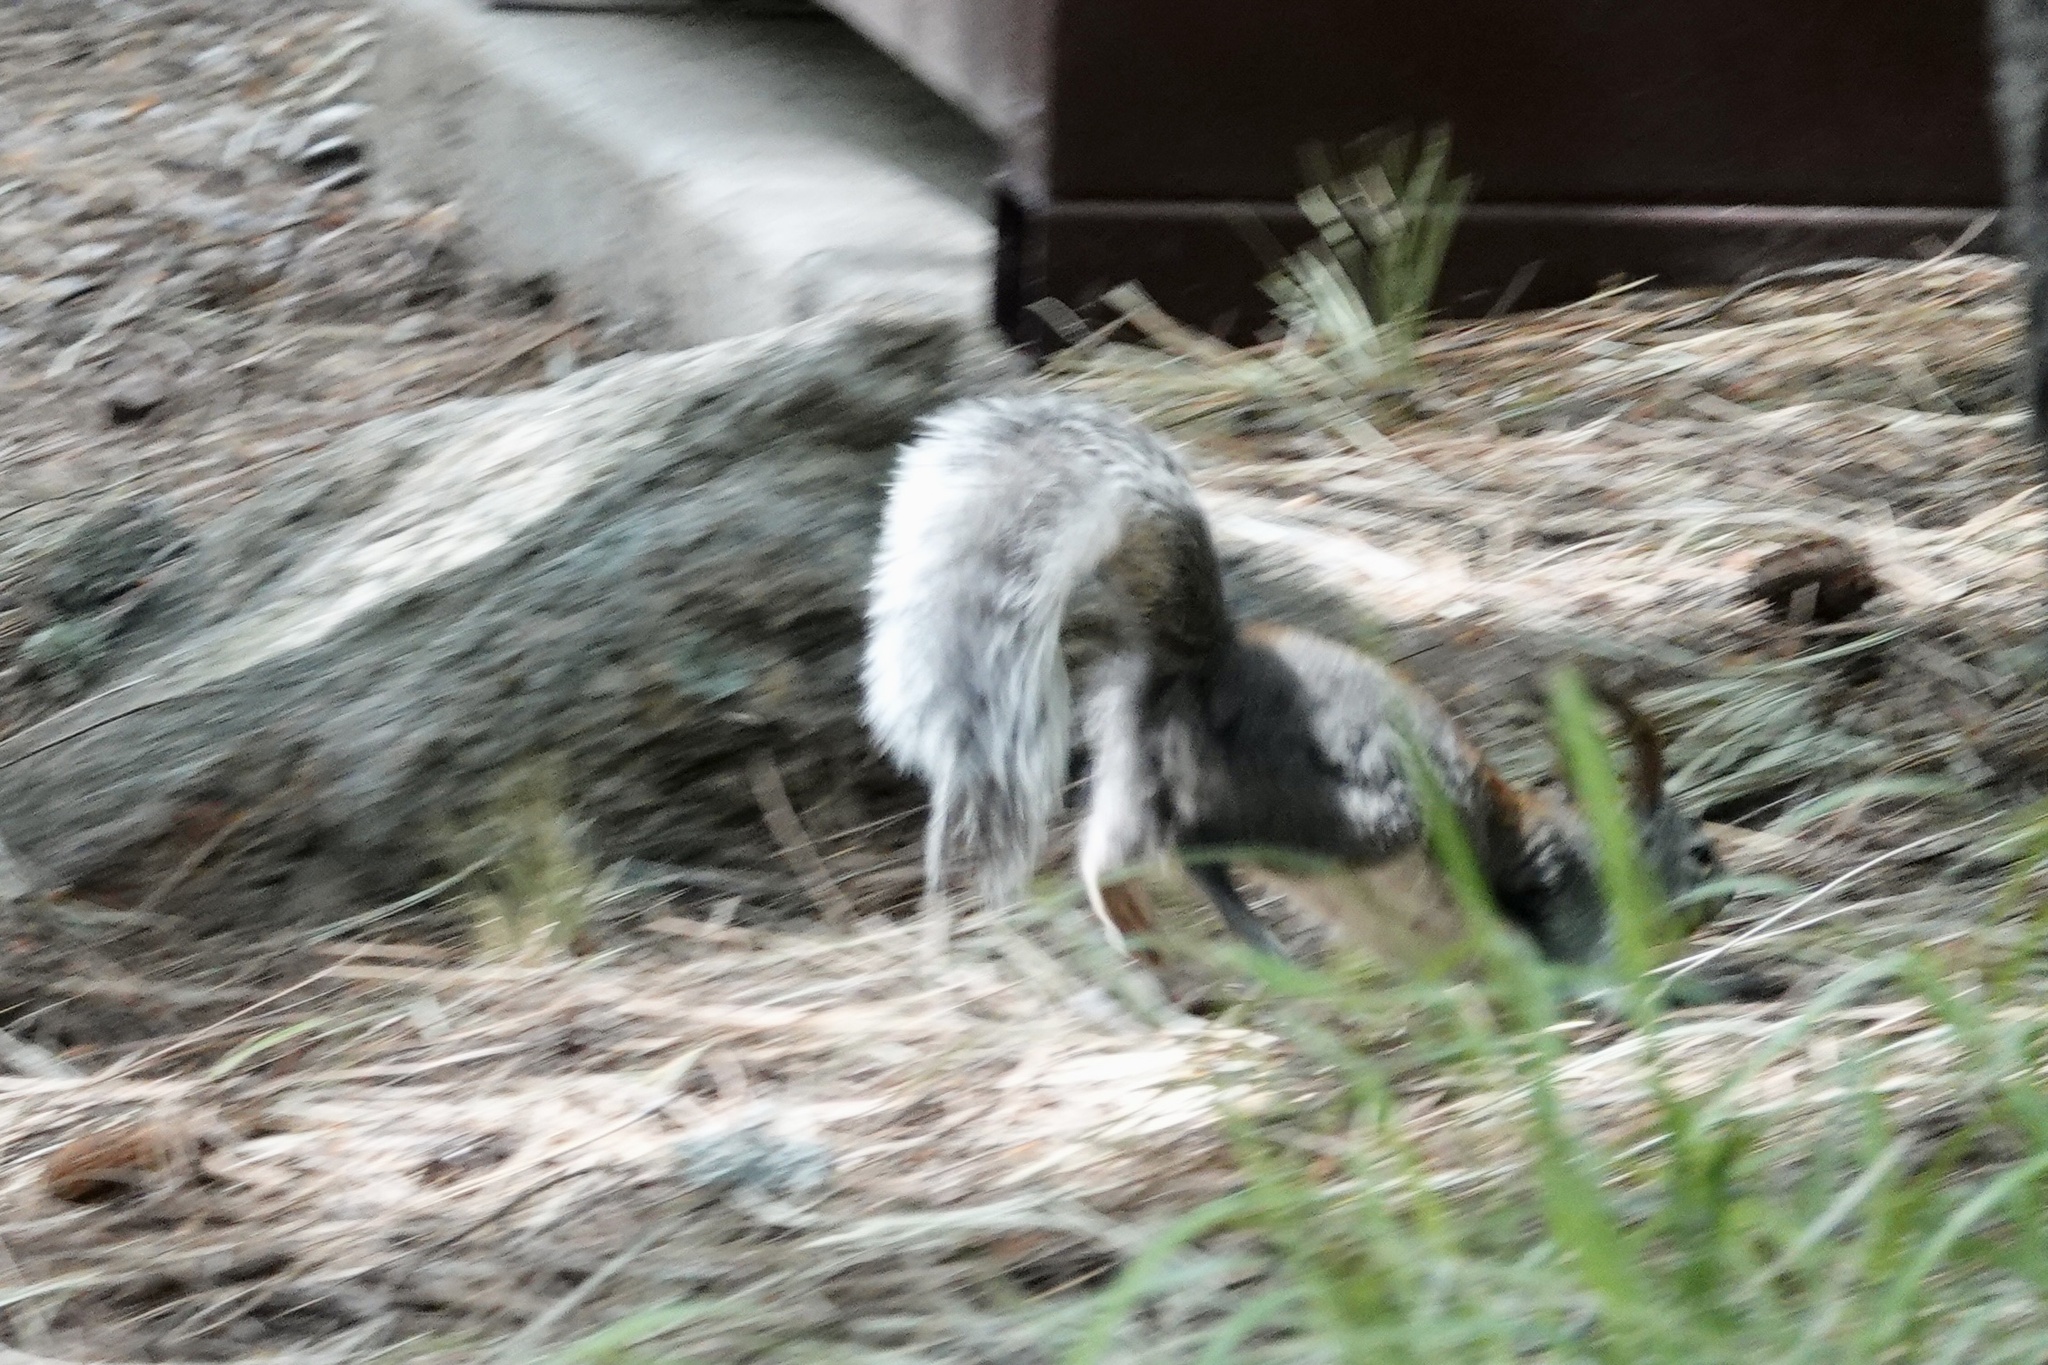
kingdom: Animalia
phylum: Chordata
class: Mammalia
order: Rodentia
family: Sciuridae
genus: Sciurus
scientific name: Sciurus aberti
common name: Abert's squirrel
